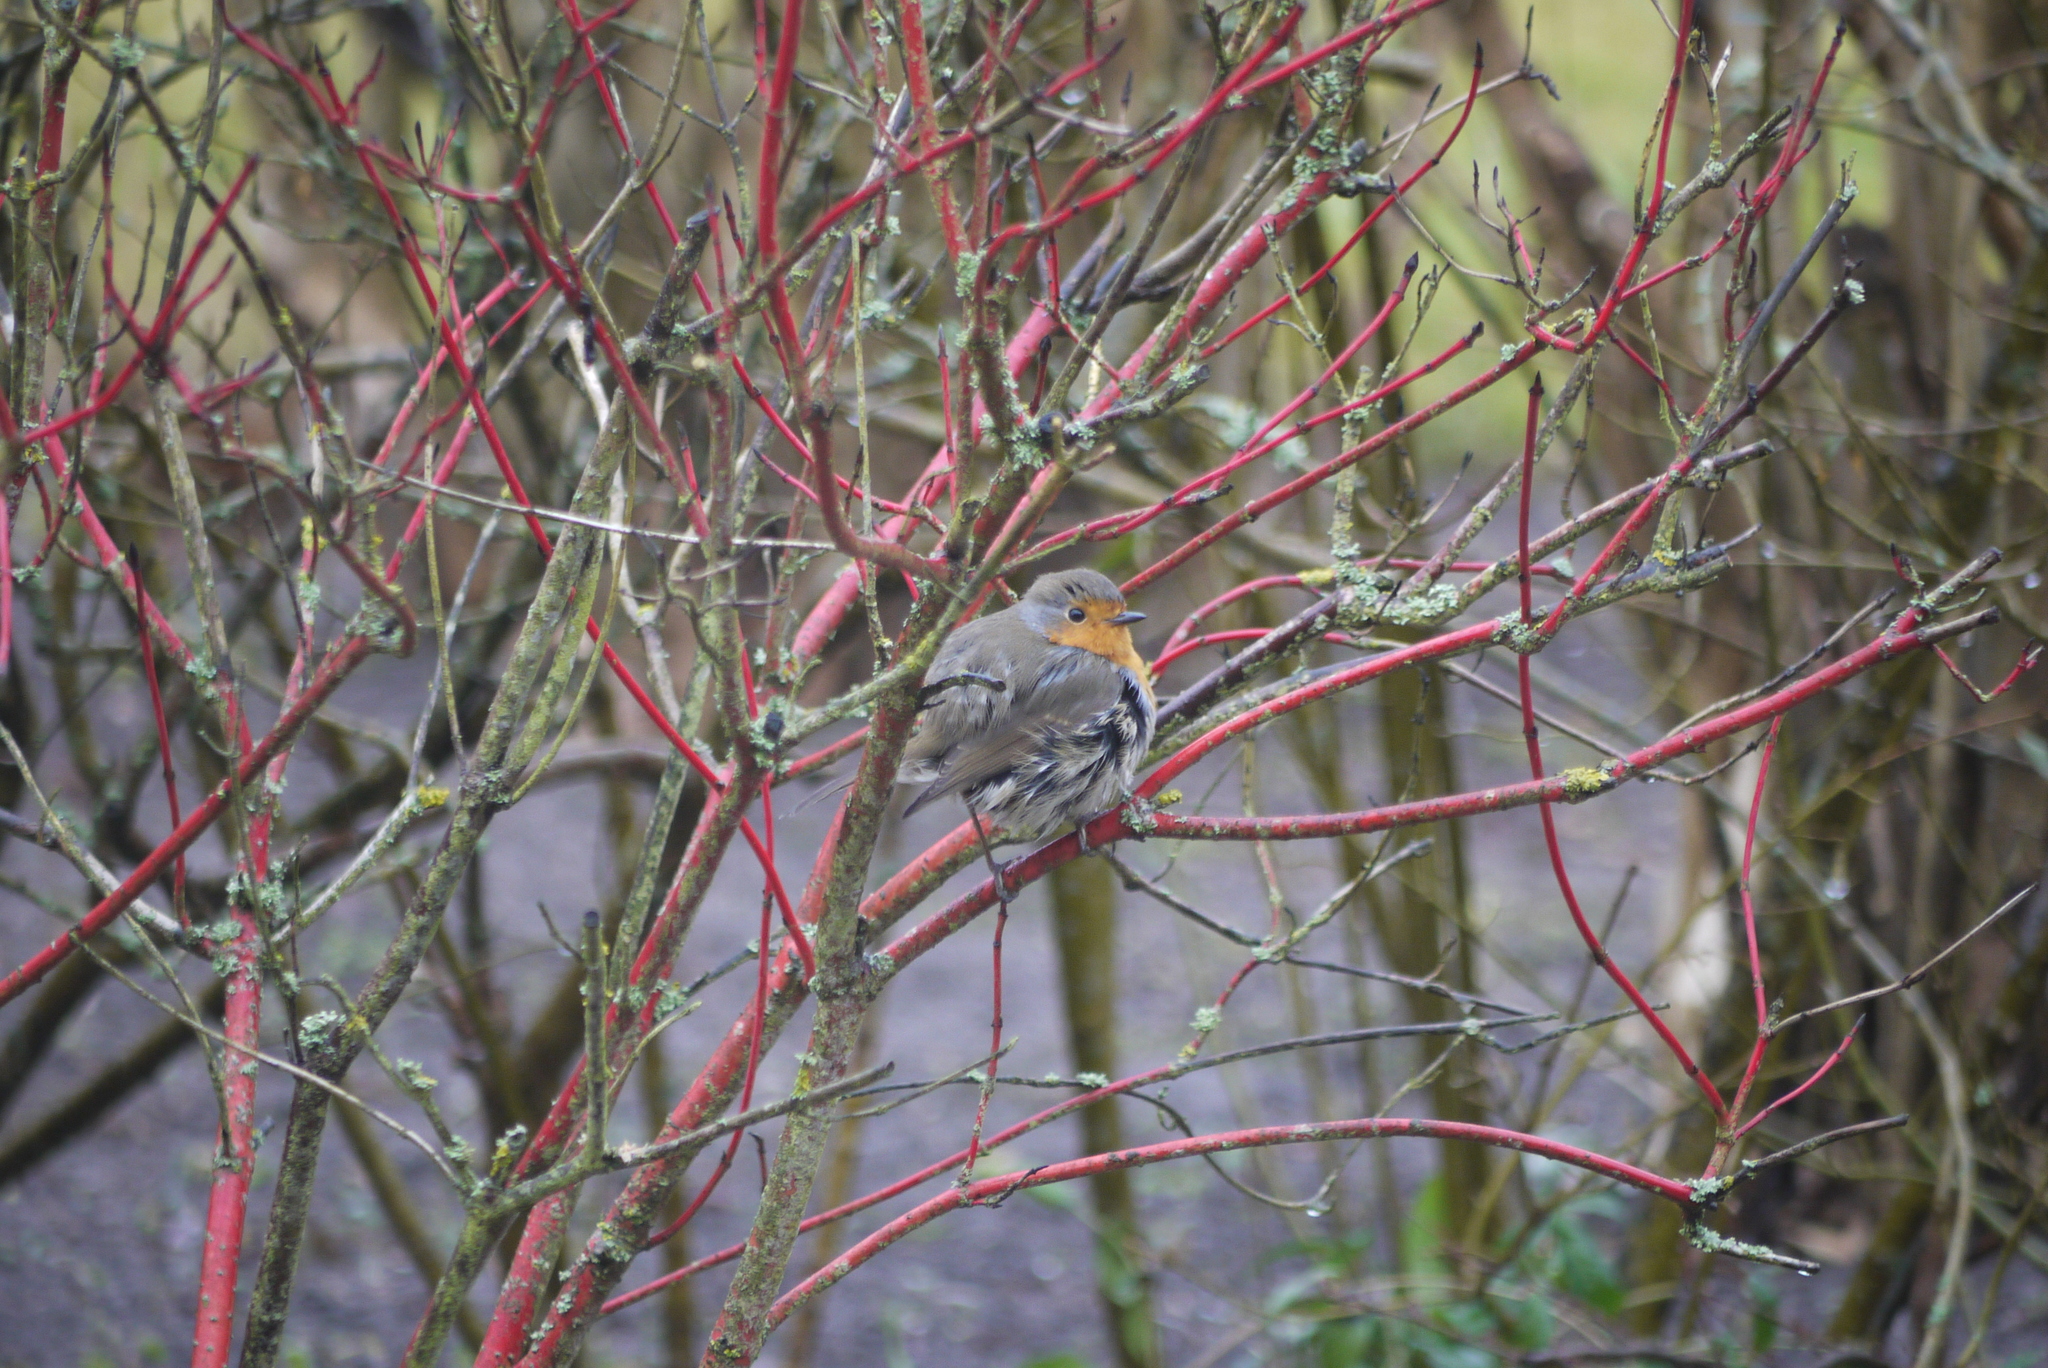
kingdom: Animalia
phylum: Chordata
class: Aves
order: Passeriformes
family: Muscicapidae
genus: Erithacus
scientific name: Erithacus rubecula
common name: European robin
